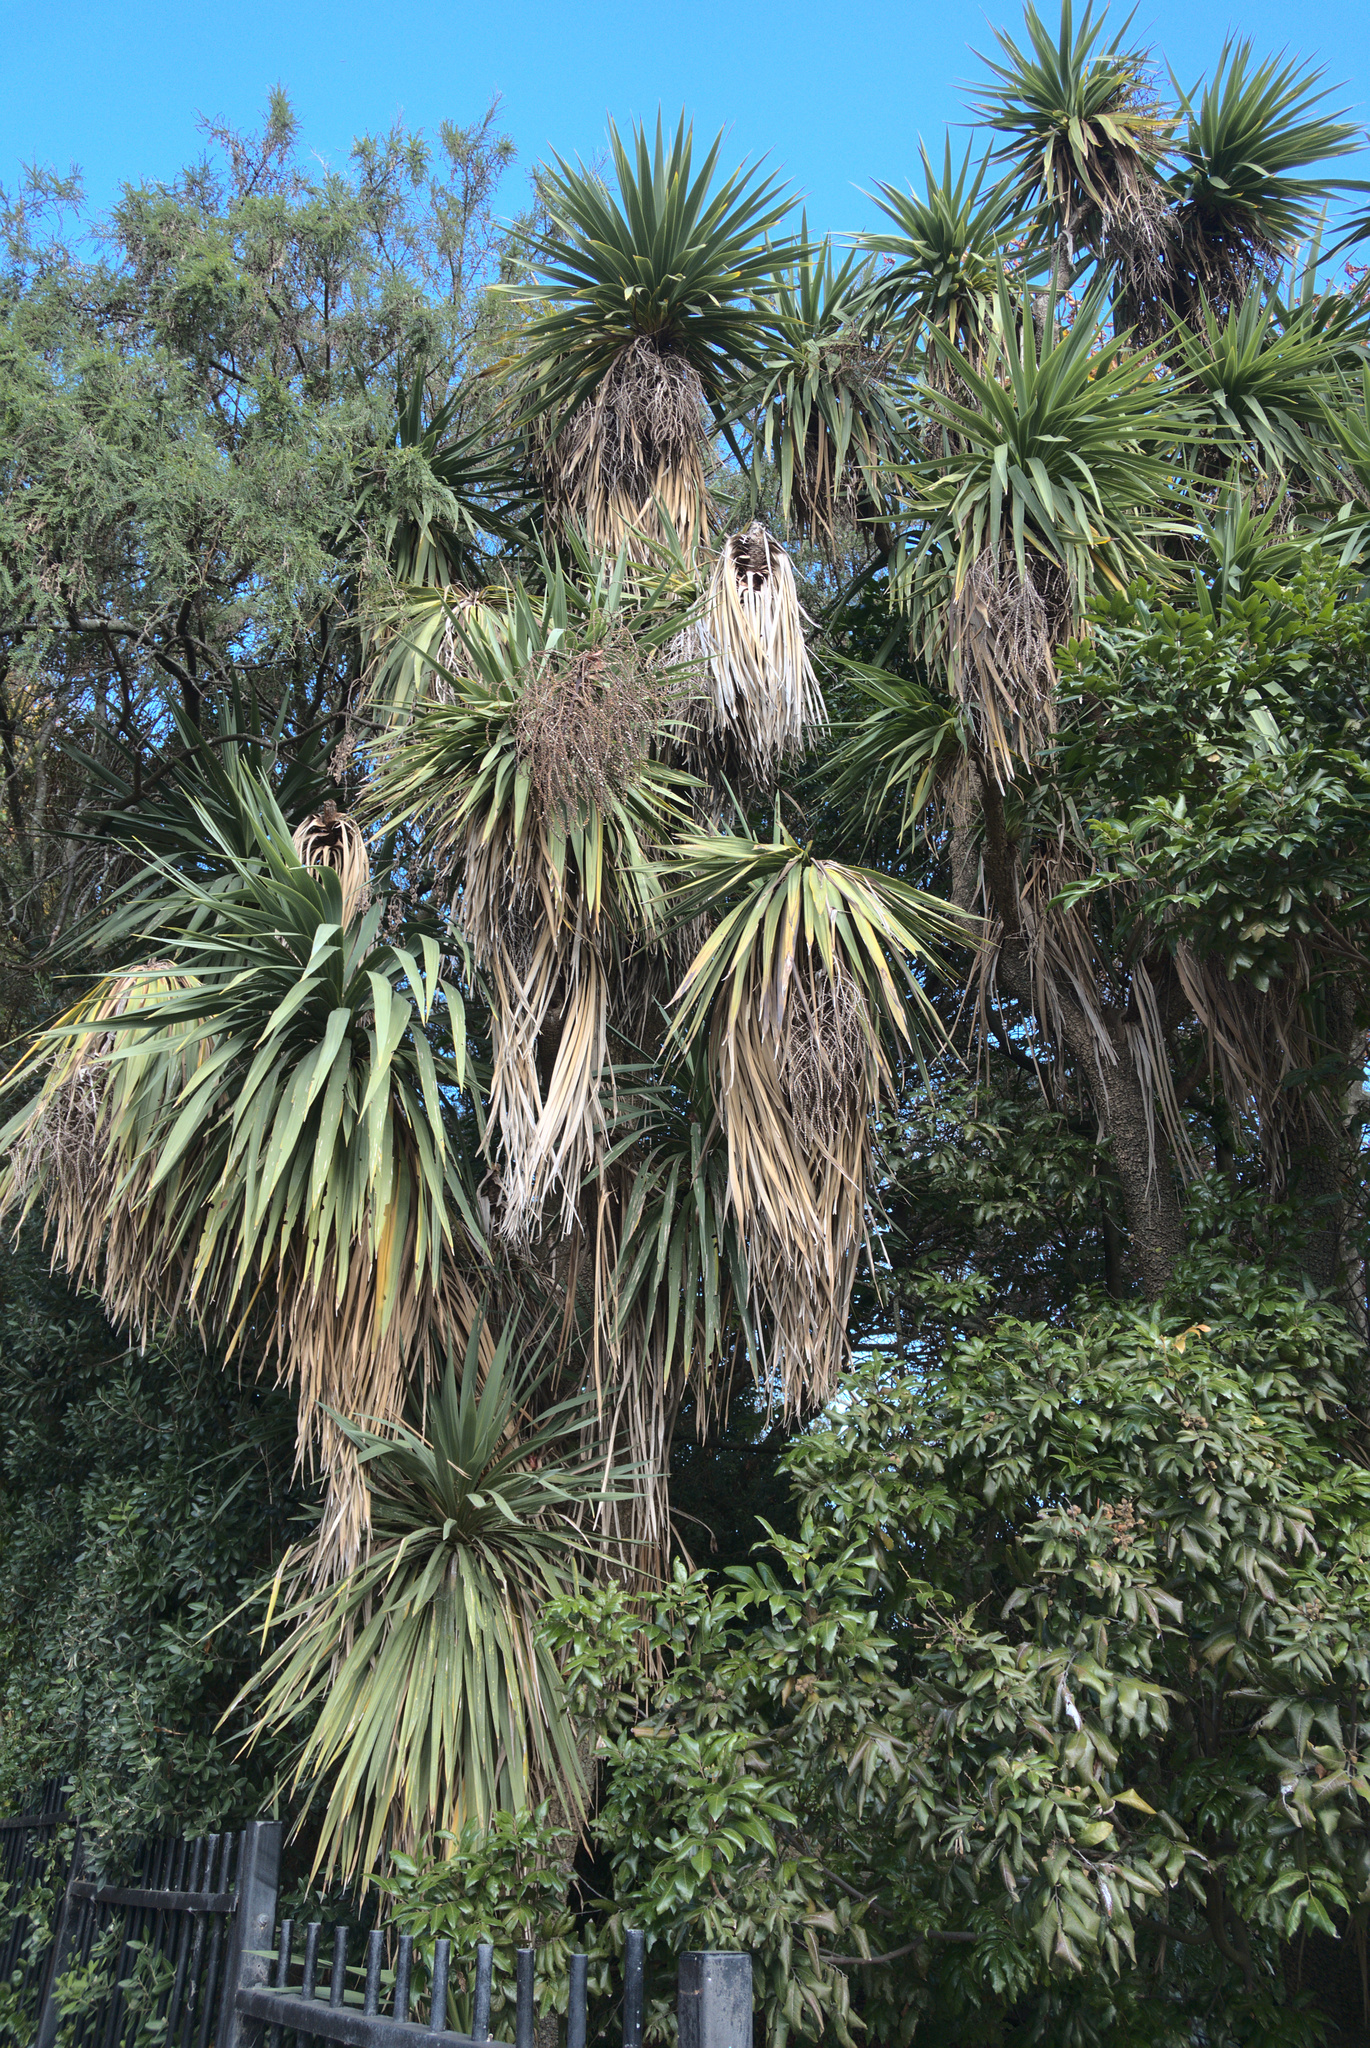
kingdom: Plantae
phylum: Tracheophyta
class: Liliopsida
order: Asparagales
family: Asparagaceae
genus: Cordyline
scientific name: Cordyline australis
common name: Cabbage-palm
